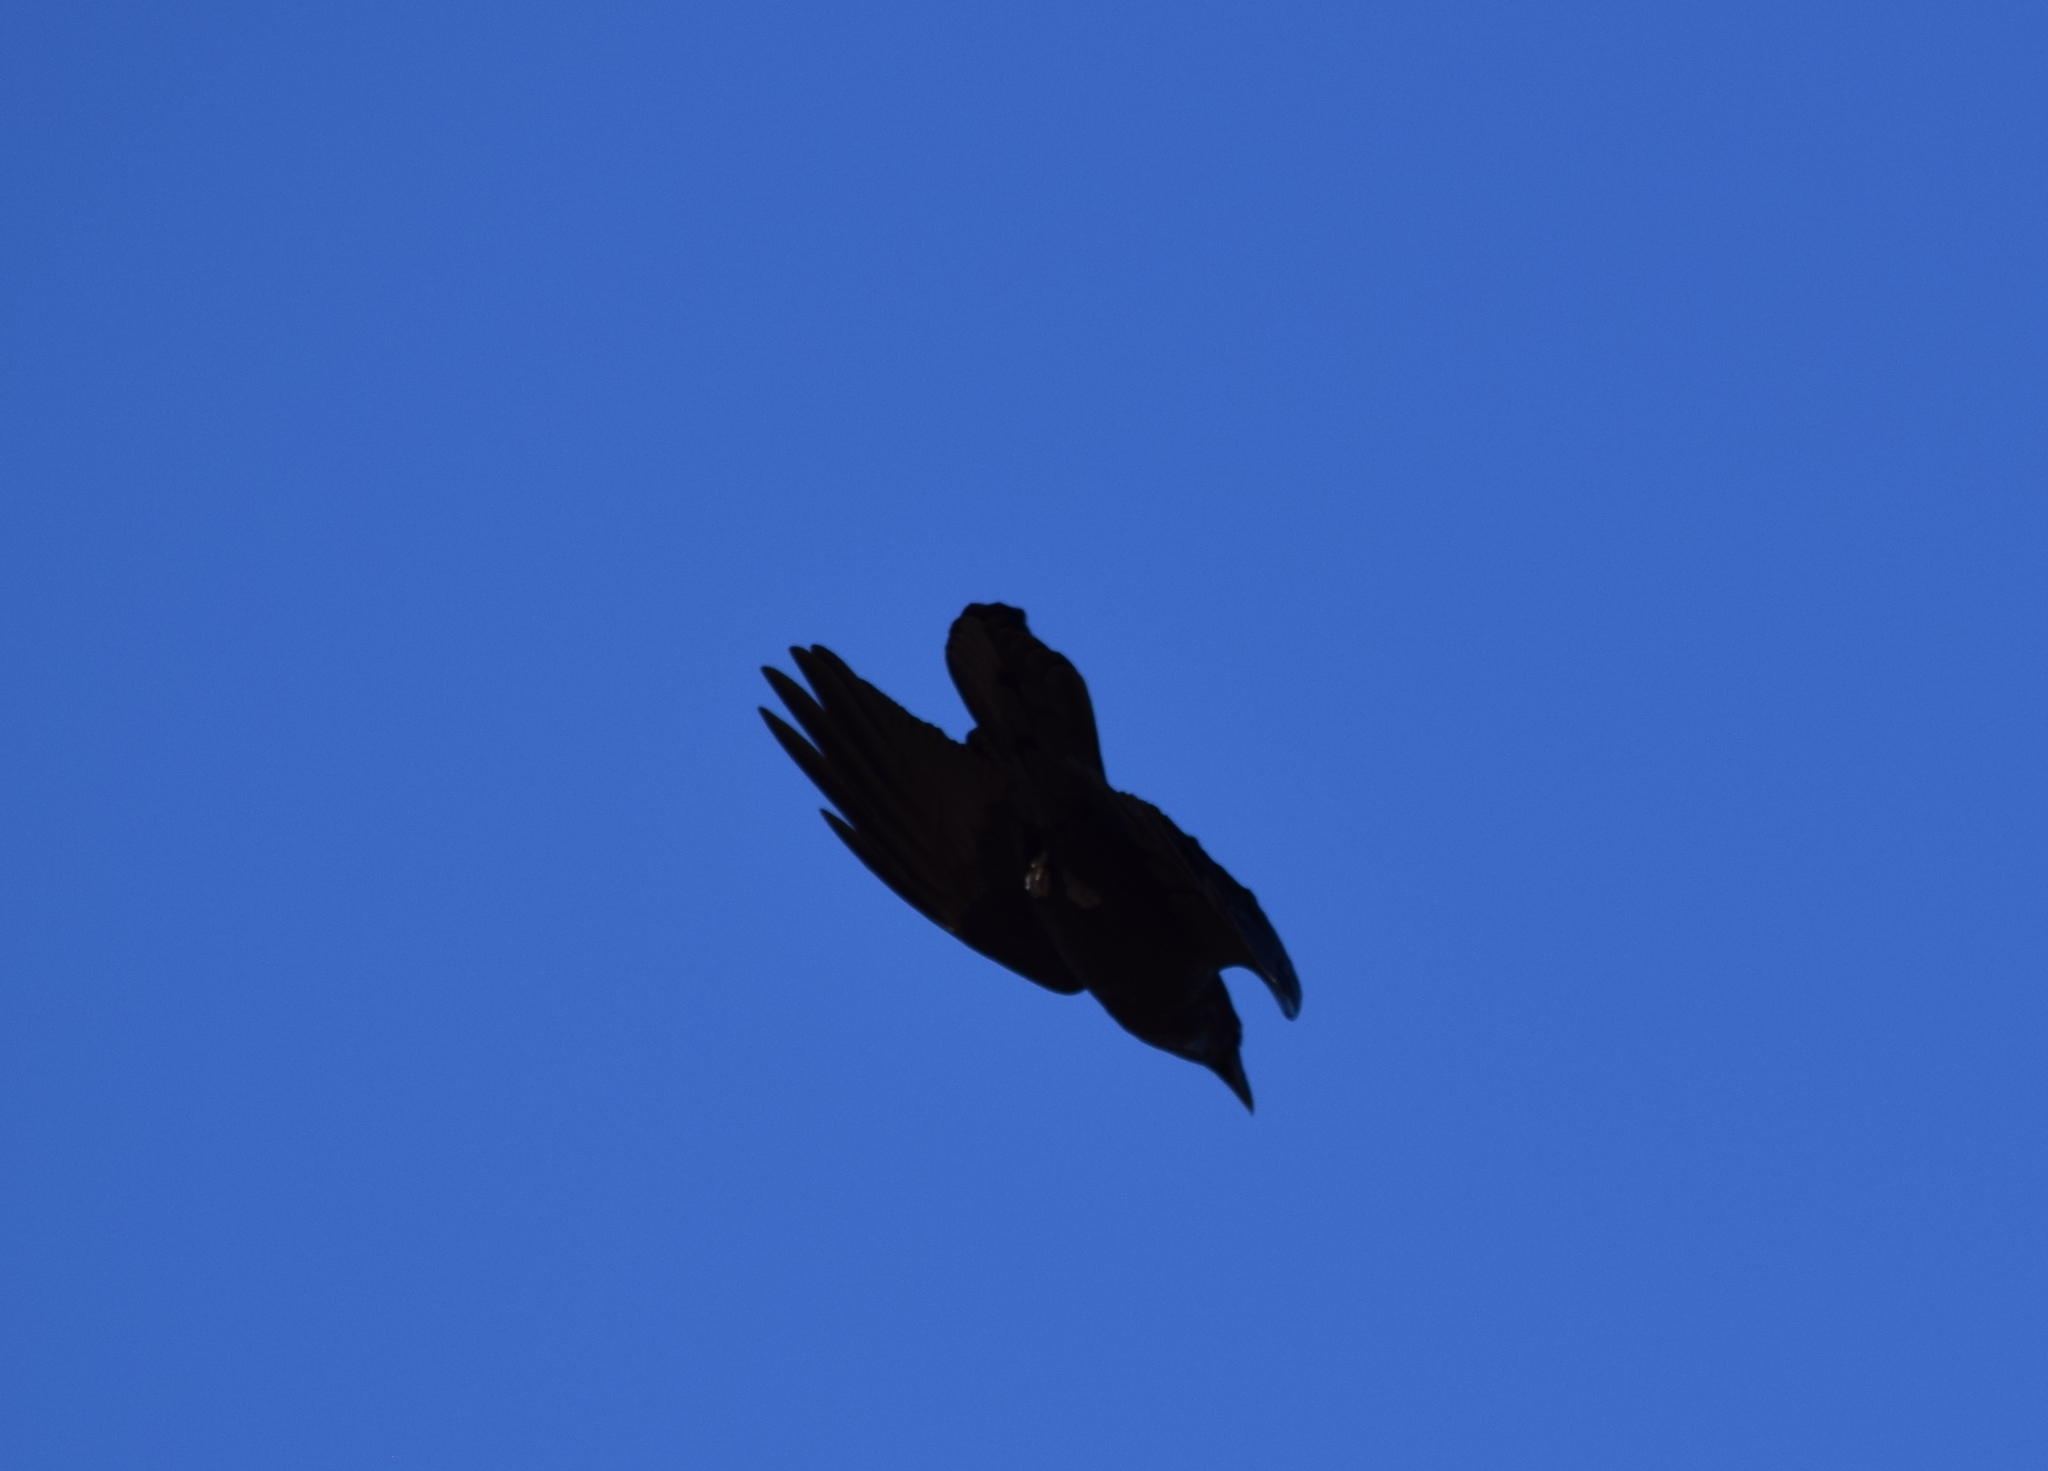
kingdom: Animalia
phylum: Chordata
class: Aves
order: Passeriformes
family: Corvidae
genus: Corvus
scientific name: Corvus corax
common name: Common raven
